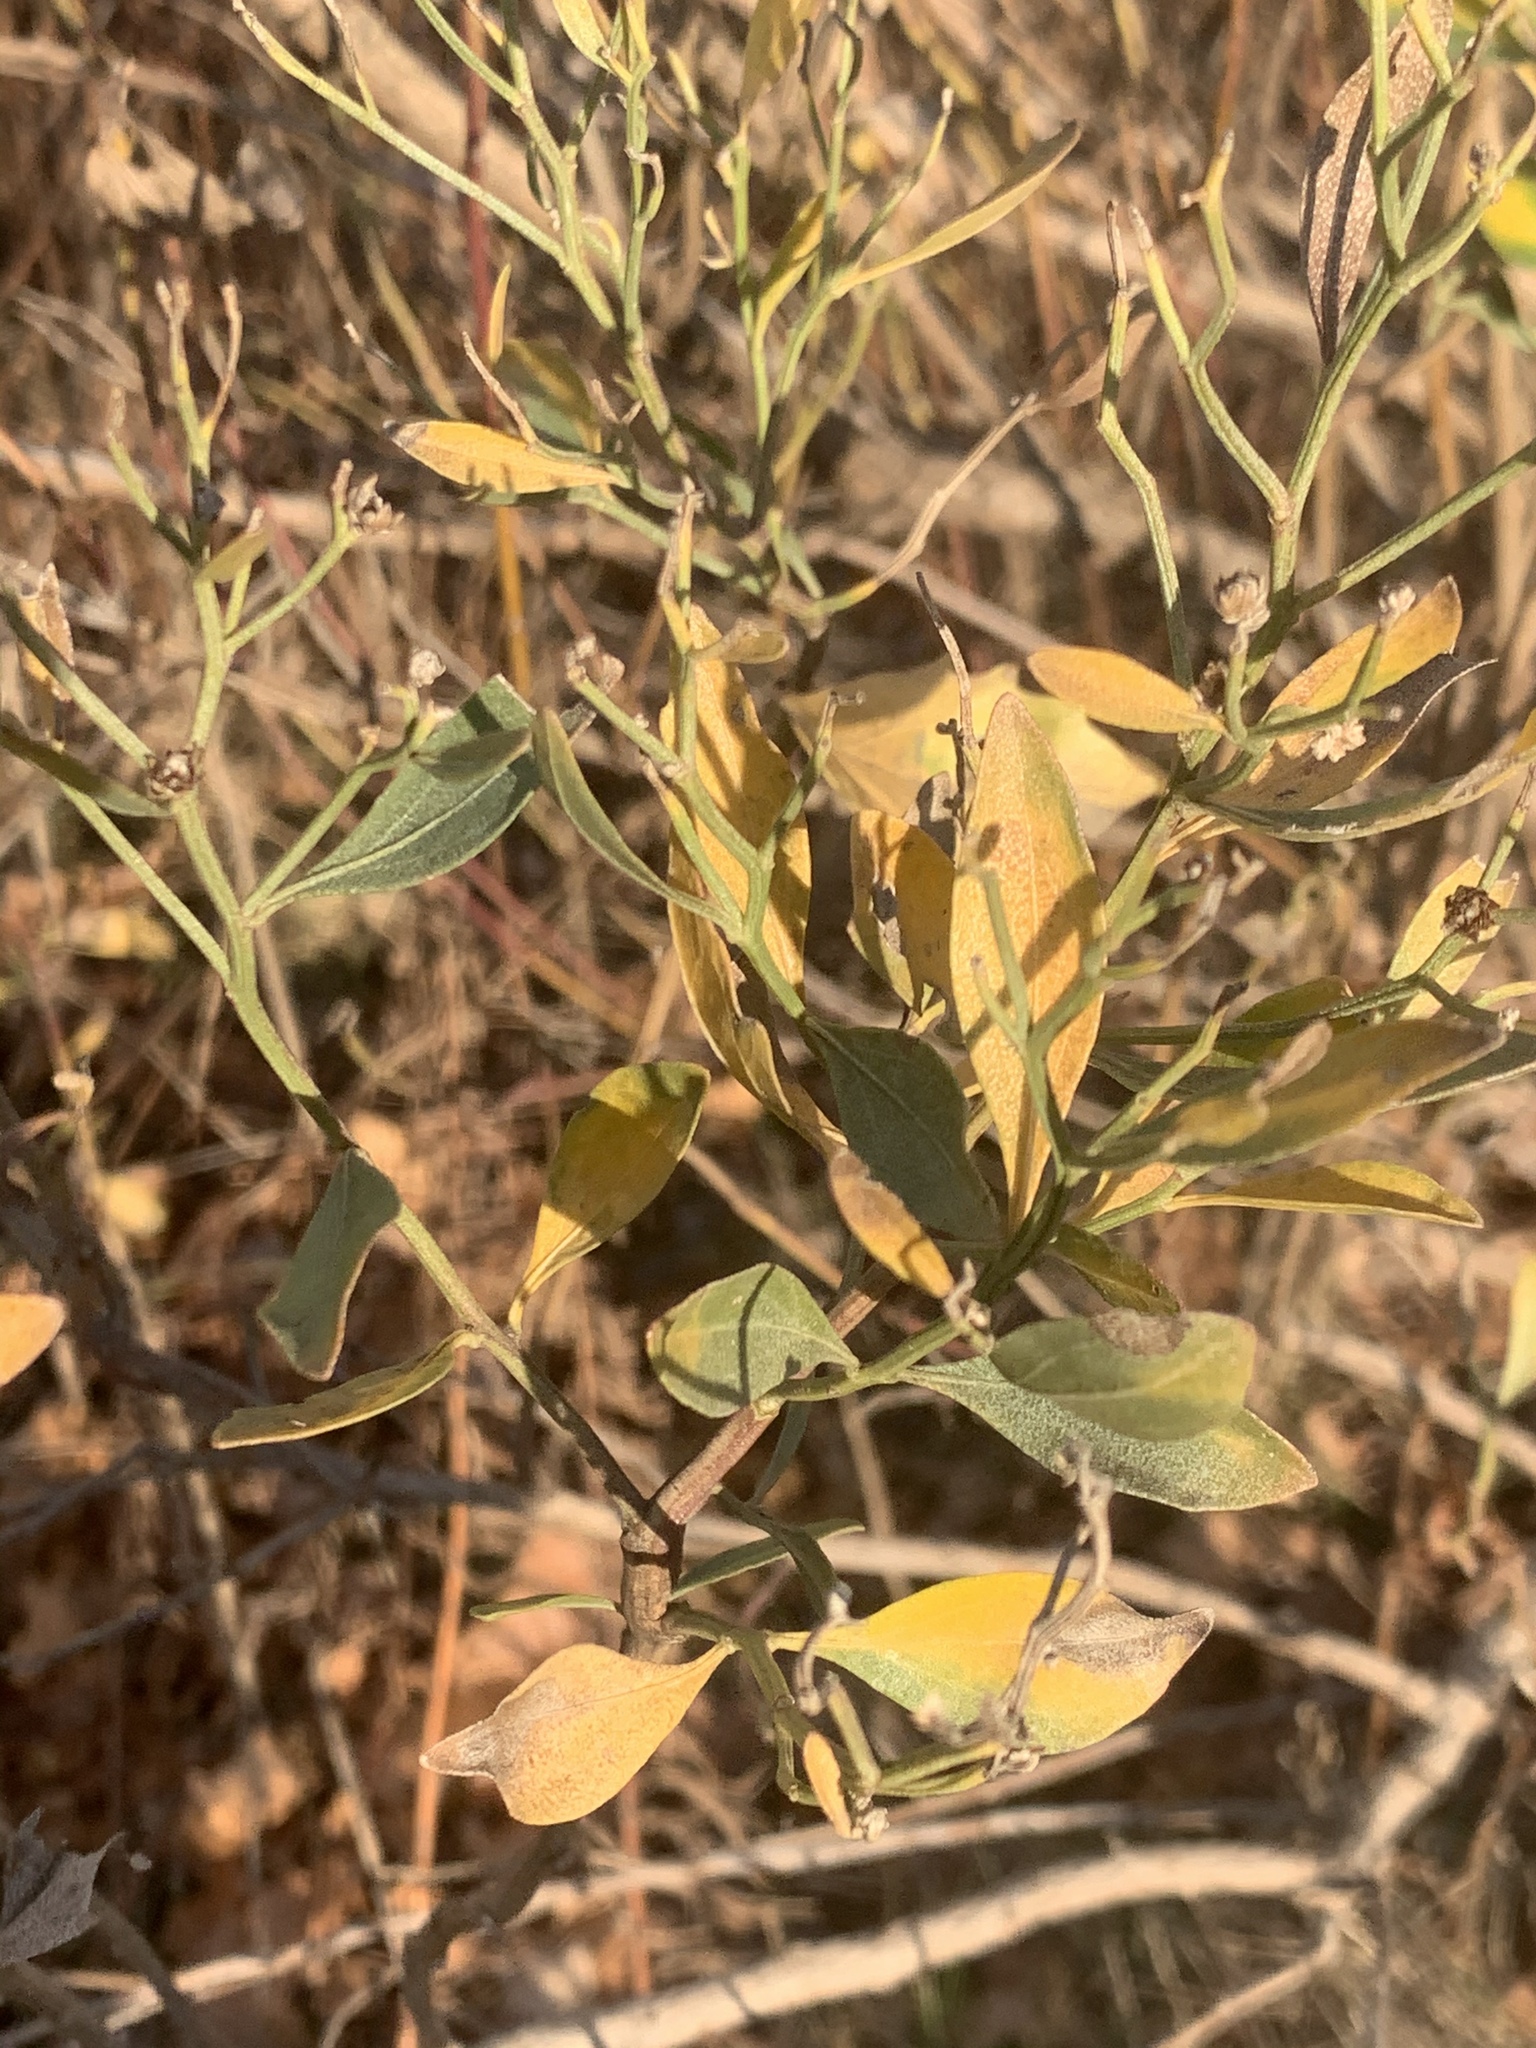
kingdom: Plantae
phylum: Tracheophyta
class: Magnoliopsida
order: Asterales
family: Asteraceae
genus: Baccharis
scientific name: Baccharis halimifolia
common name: Eastern baccharis
